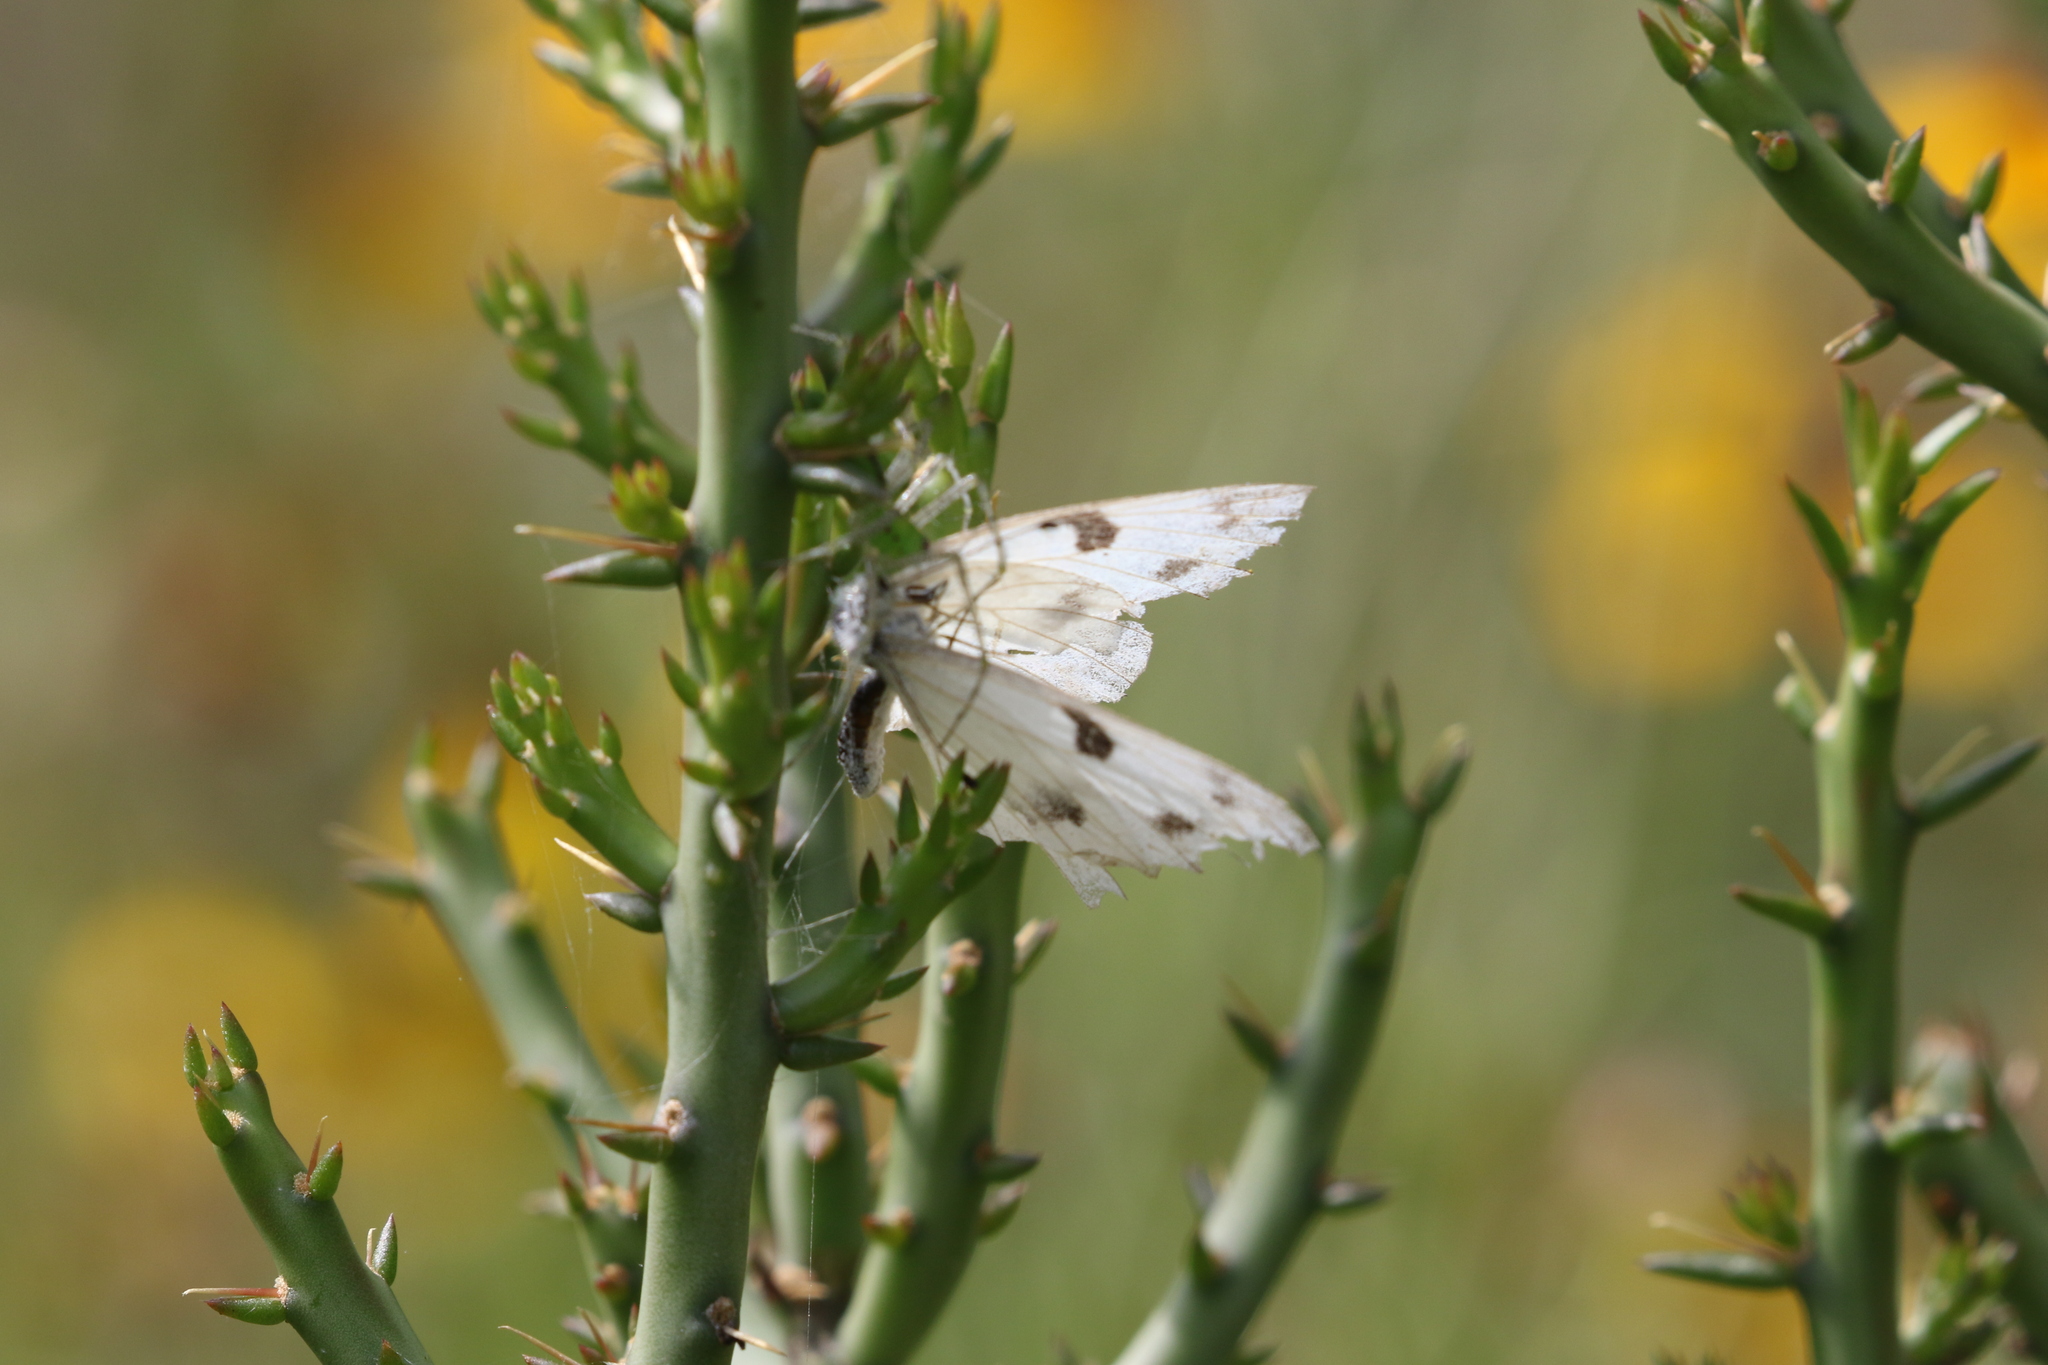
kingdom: Animalia
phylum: Arthropoda
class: Insecta
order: Lepidoptera
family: Pieridae
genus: Pontia
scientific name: Pontia protodice
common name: Checkered white
